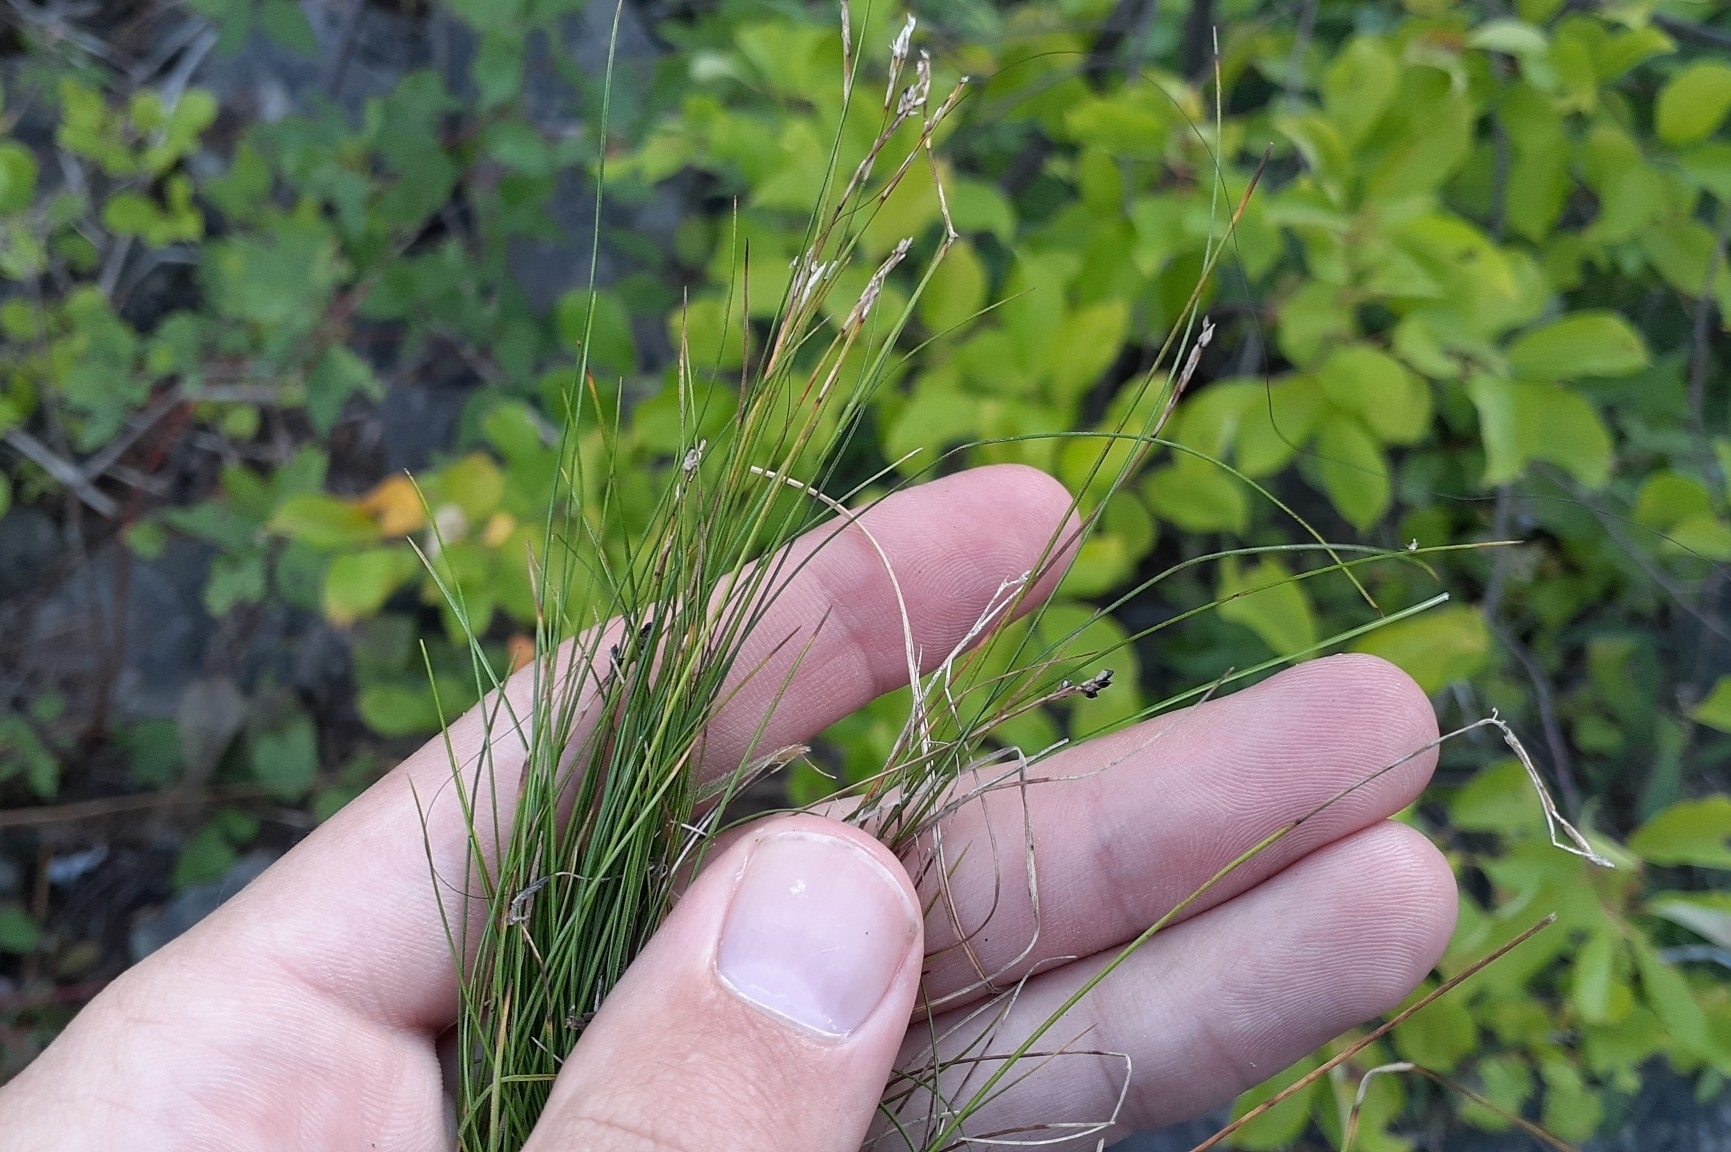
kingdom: Plantae
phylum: Tracheophyta
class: Liliopsida
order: Poales
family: Cyperaceae
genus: Carex
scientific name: Carex eburnea
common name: Bristle-leaved sedge
